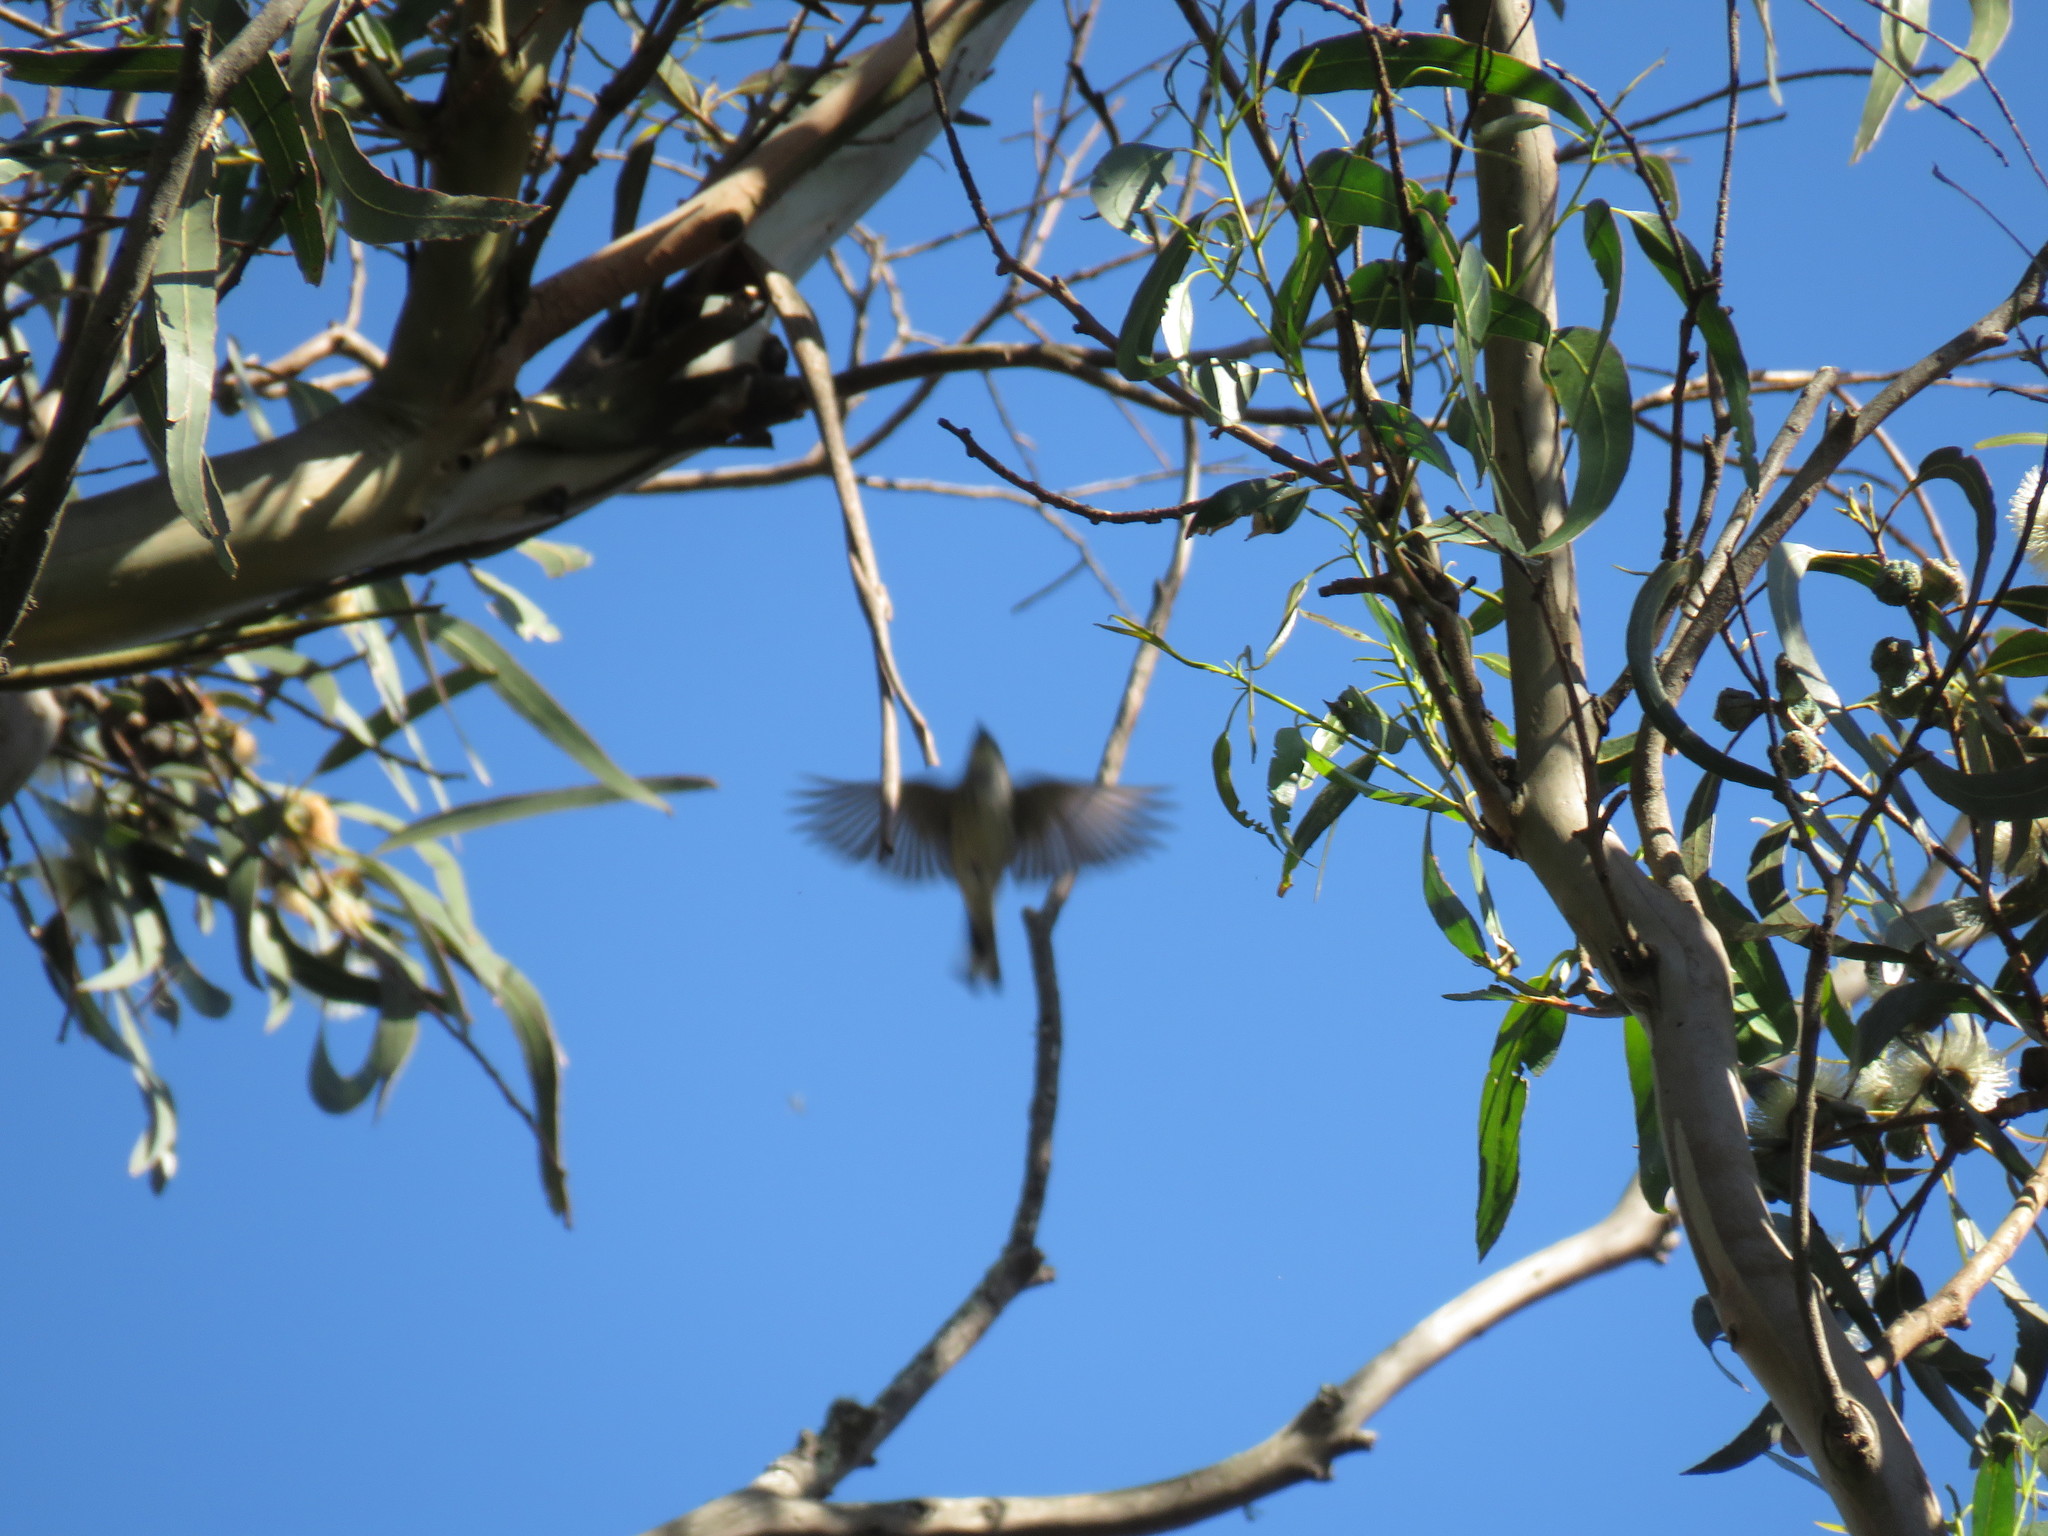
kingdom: Animalia
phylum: Chordata
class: Aves
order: Passeriformes
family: Bombycillidae
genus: Bombycilla
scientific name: Bombycilla cedrorum
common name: Cedar waxwing
